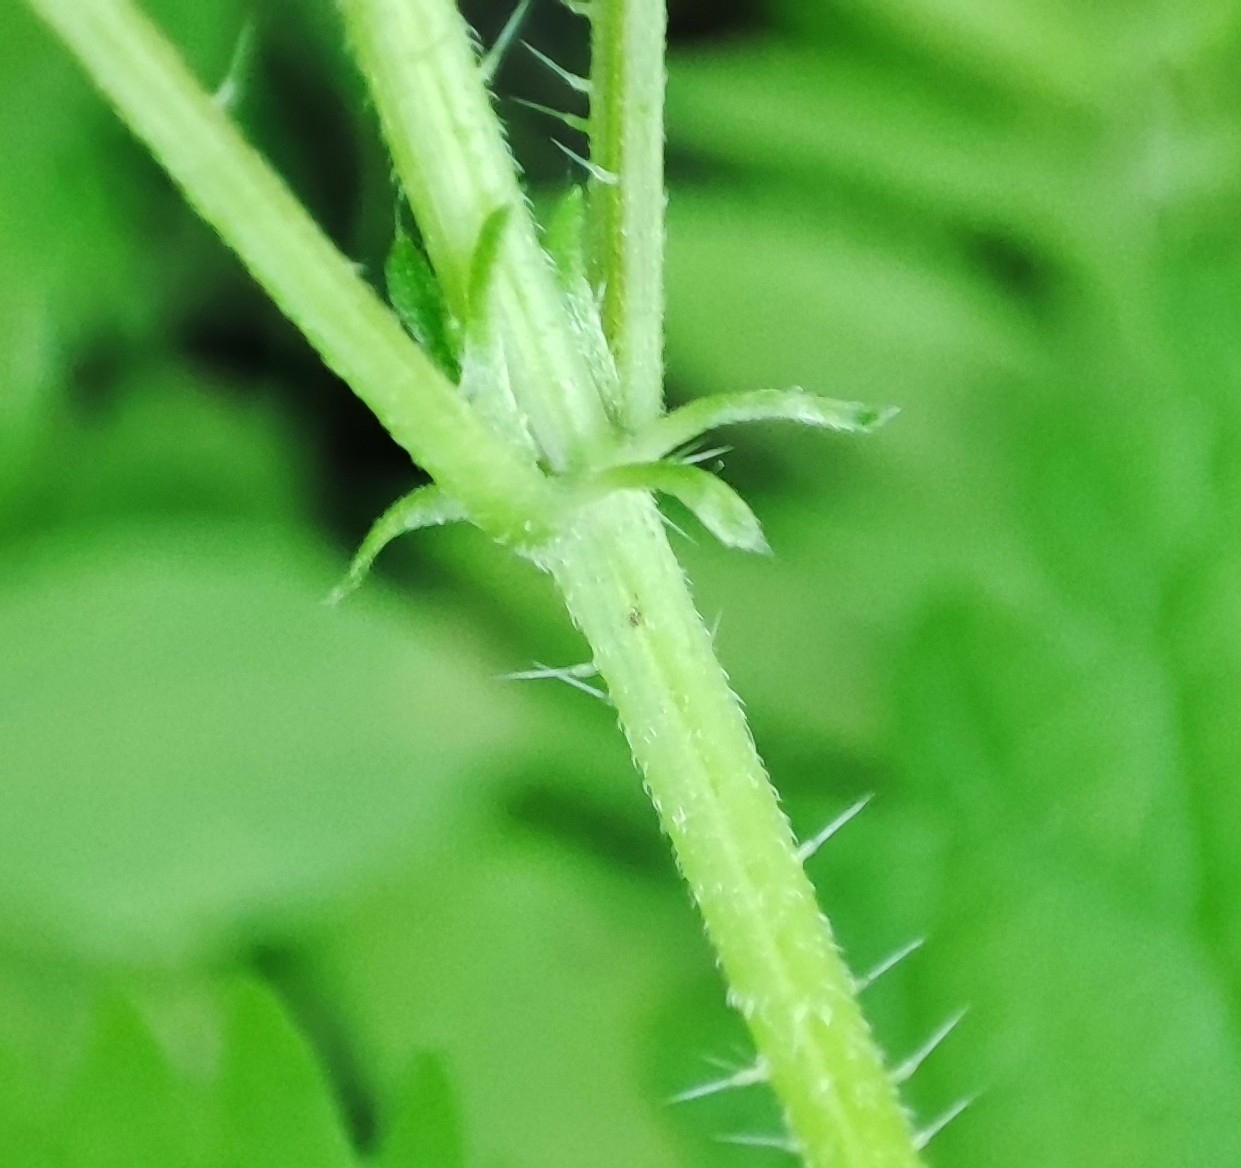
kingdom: Plantae
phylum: Tracheophyta
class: Magnoliopsida
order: Rosales
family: Urticaceae
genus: Urtica
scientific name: Urtica dioica
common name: Common nettle
